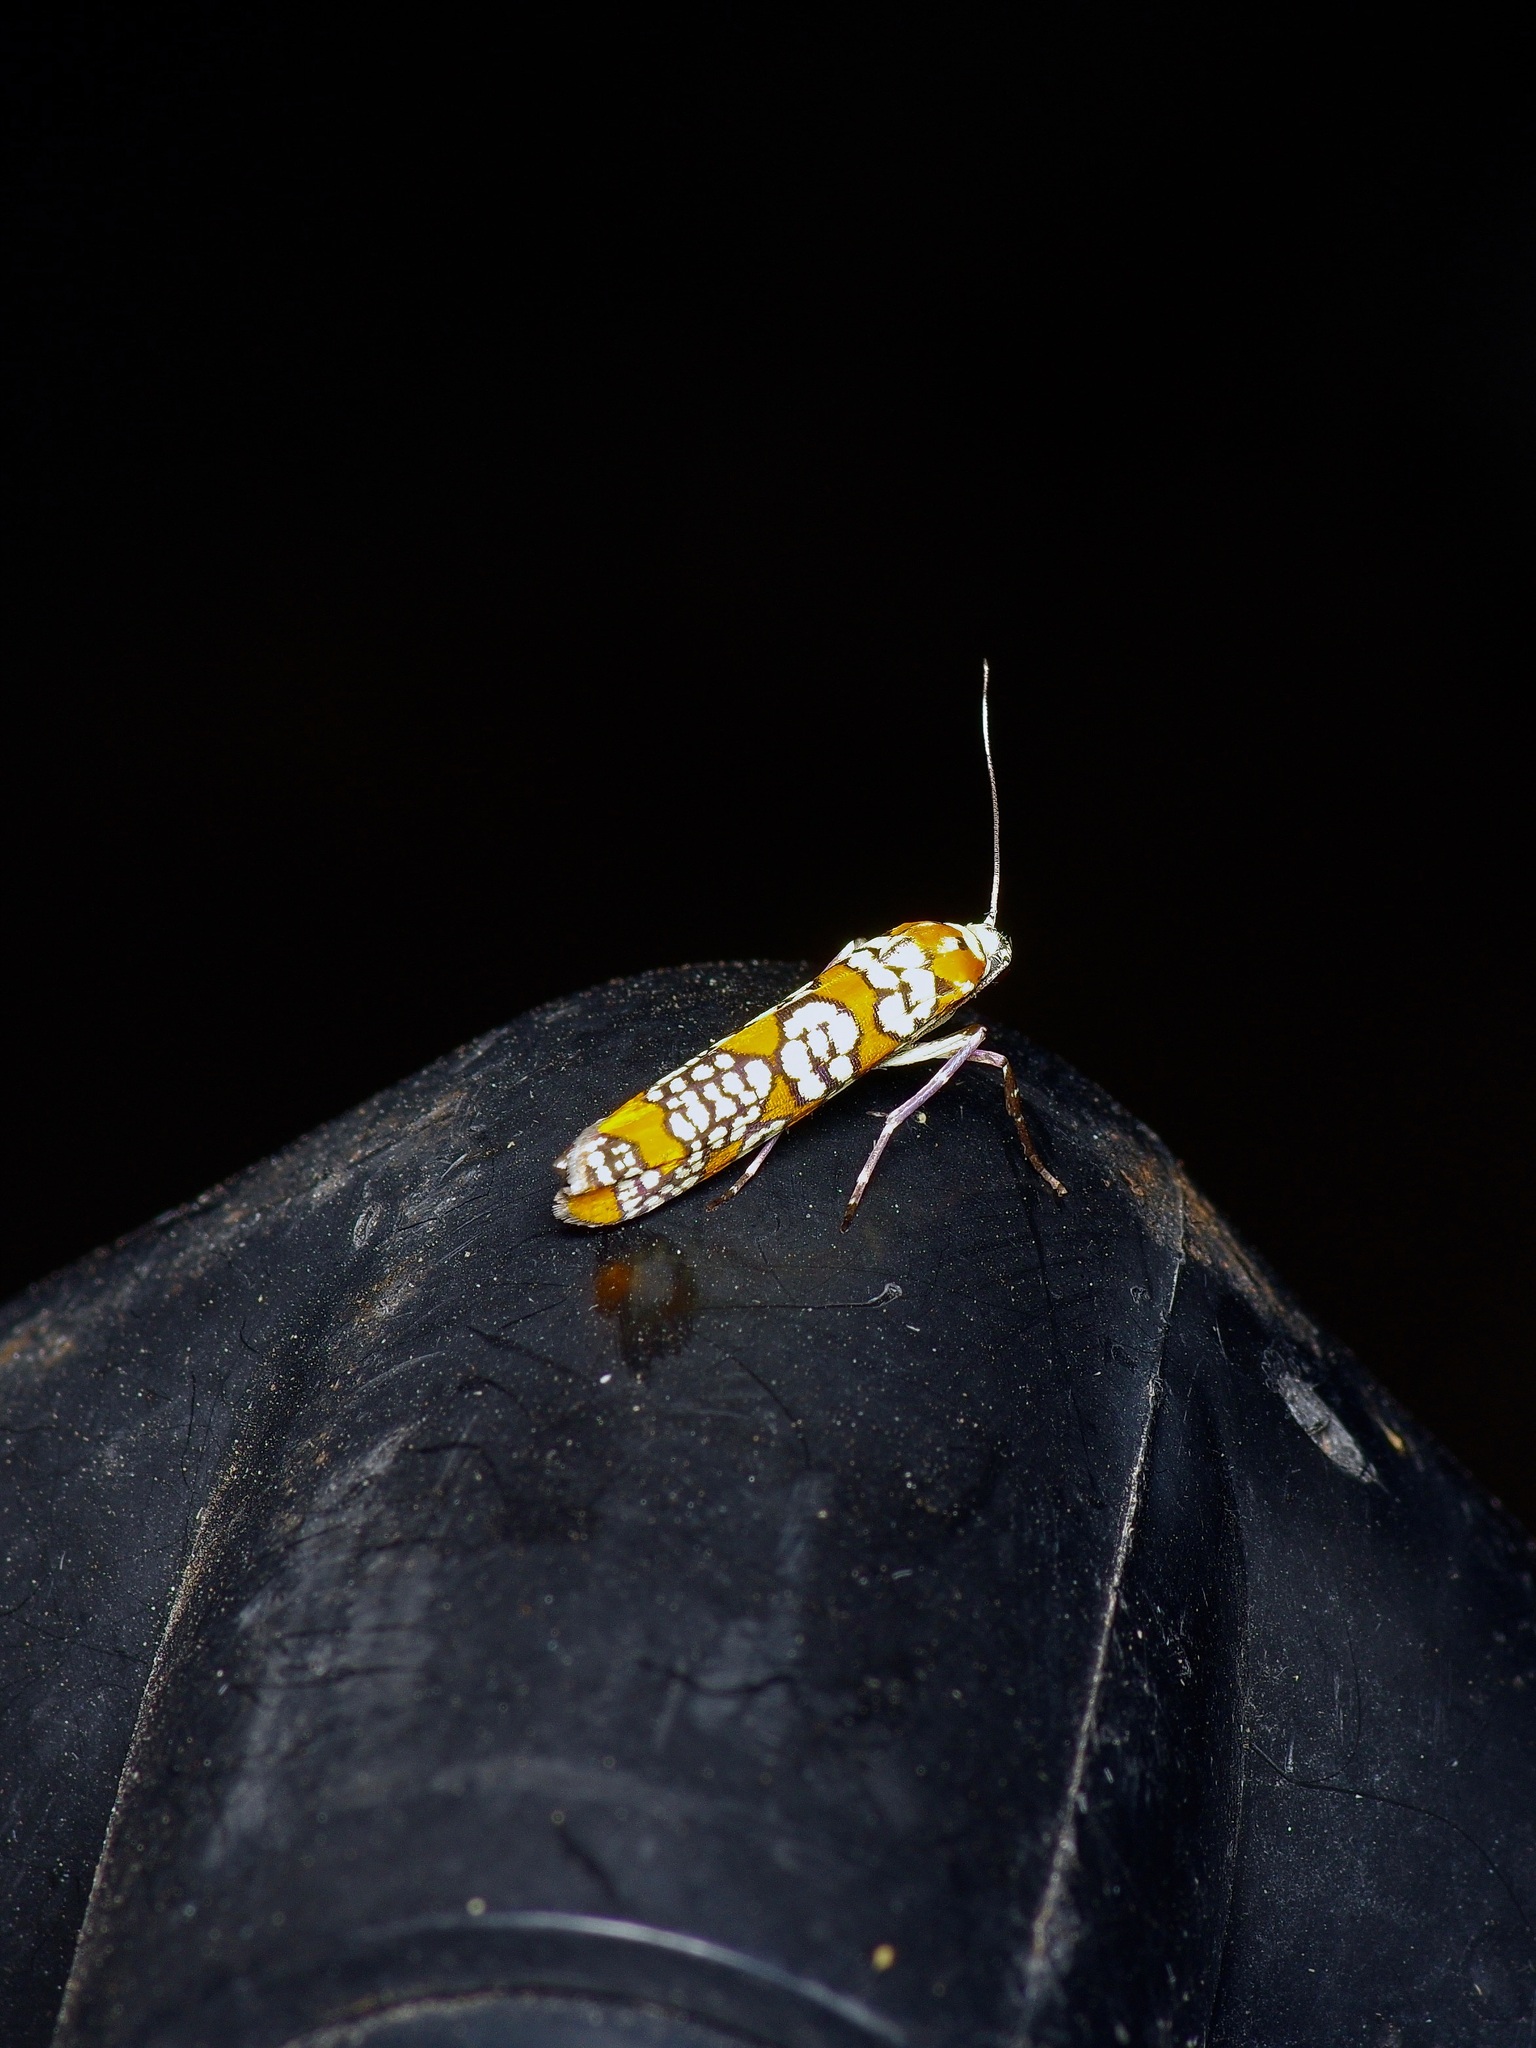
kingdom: Animalia
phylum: Arthropoda
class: Insecta
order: Lepidoptera
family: Attevidae
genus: Atteva
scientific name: Atteva punctella
